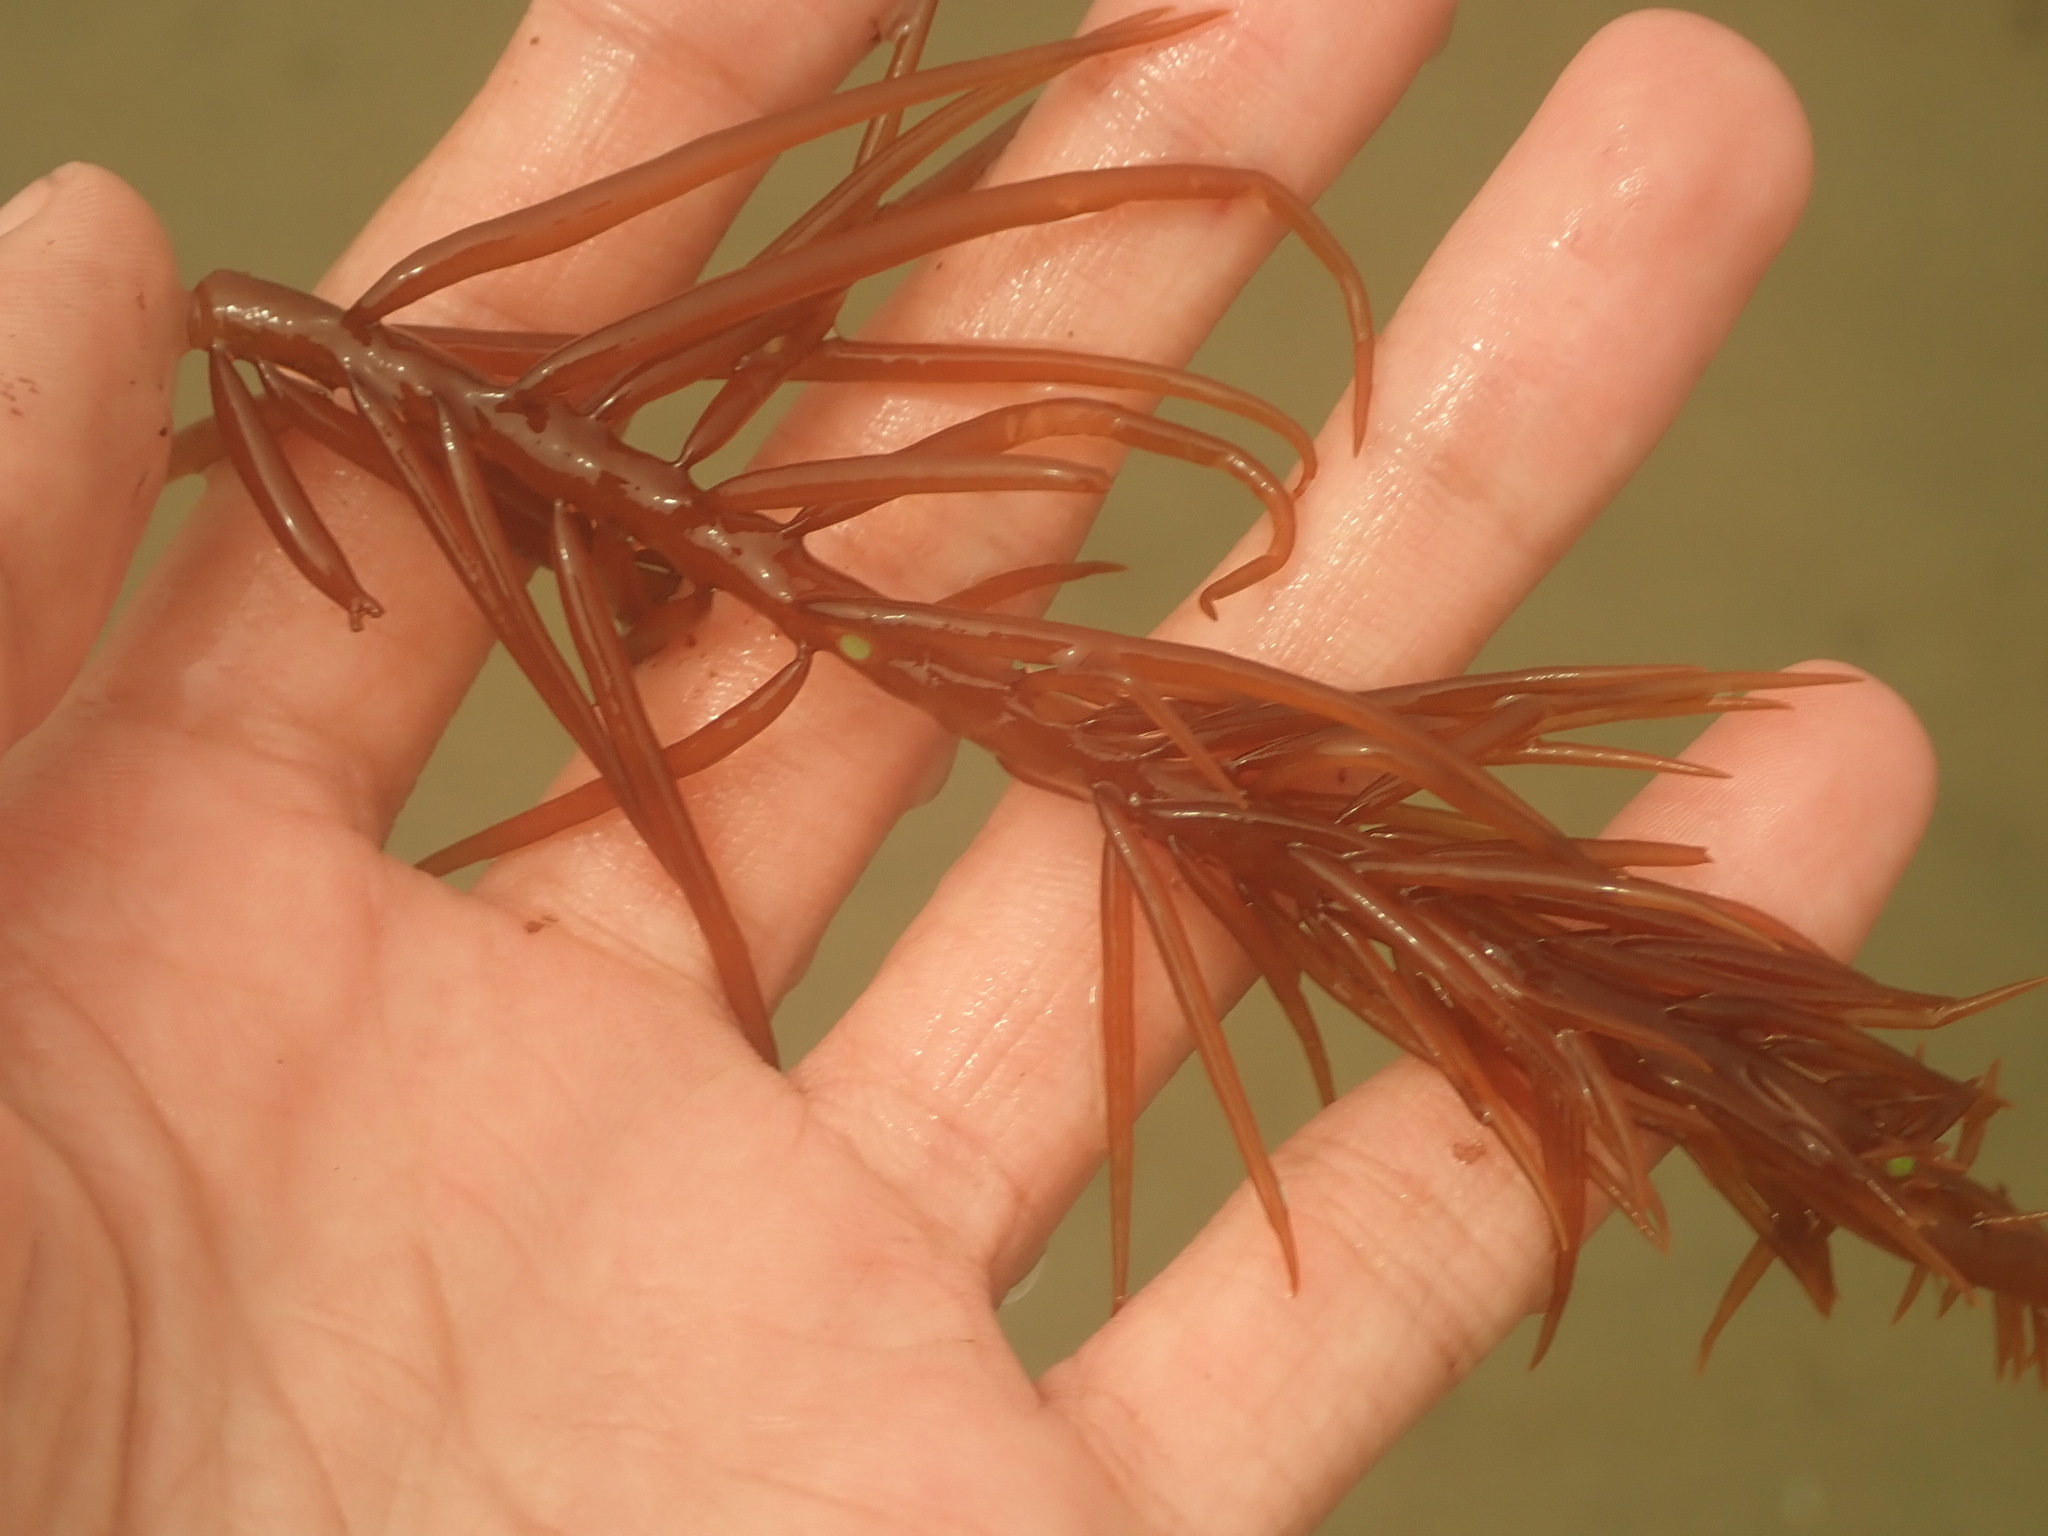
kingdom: Plantae
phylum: Rhodophyta
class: Florideophyceae
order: Gigartinales
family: Solieriaceae
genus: Sarcodiotheca
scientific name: Sarcodiotheca gaudichaudii
